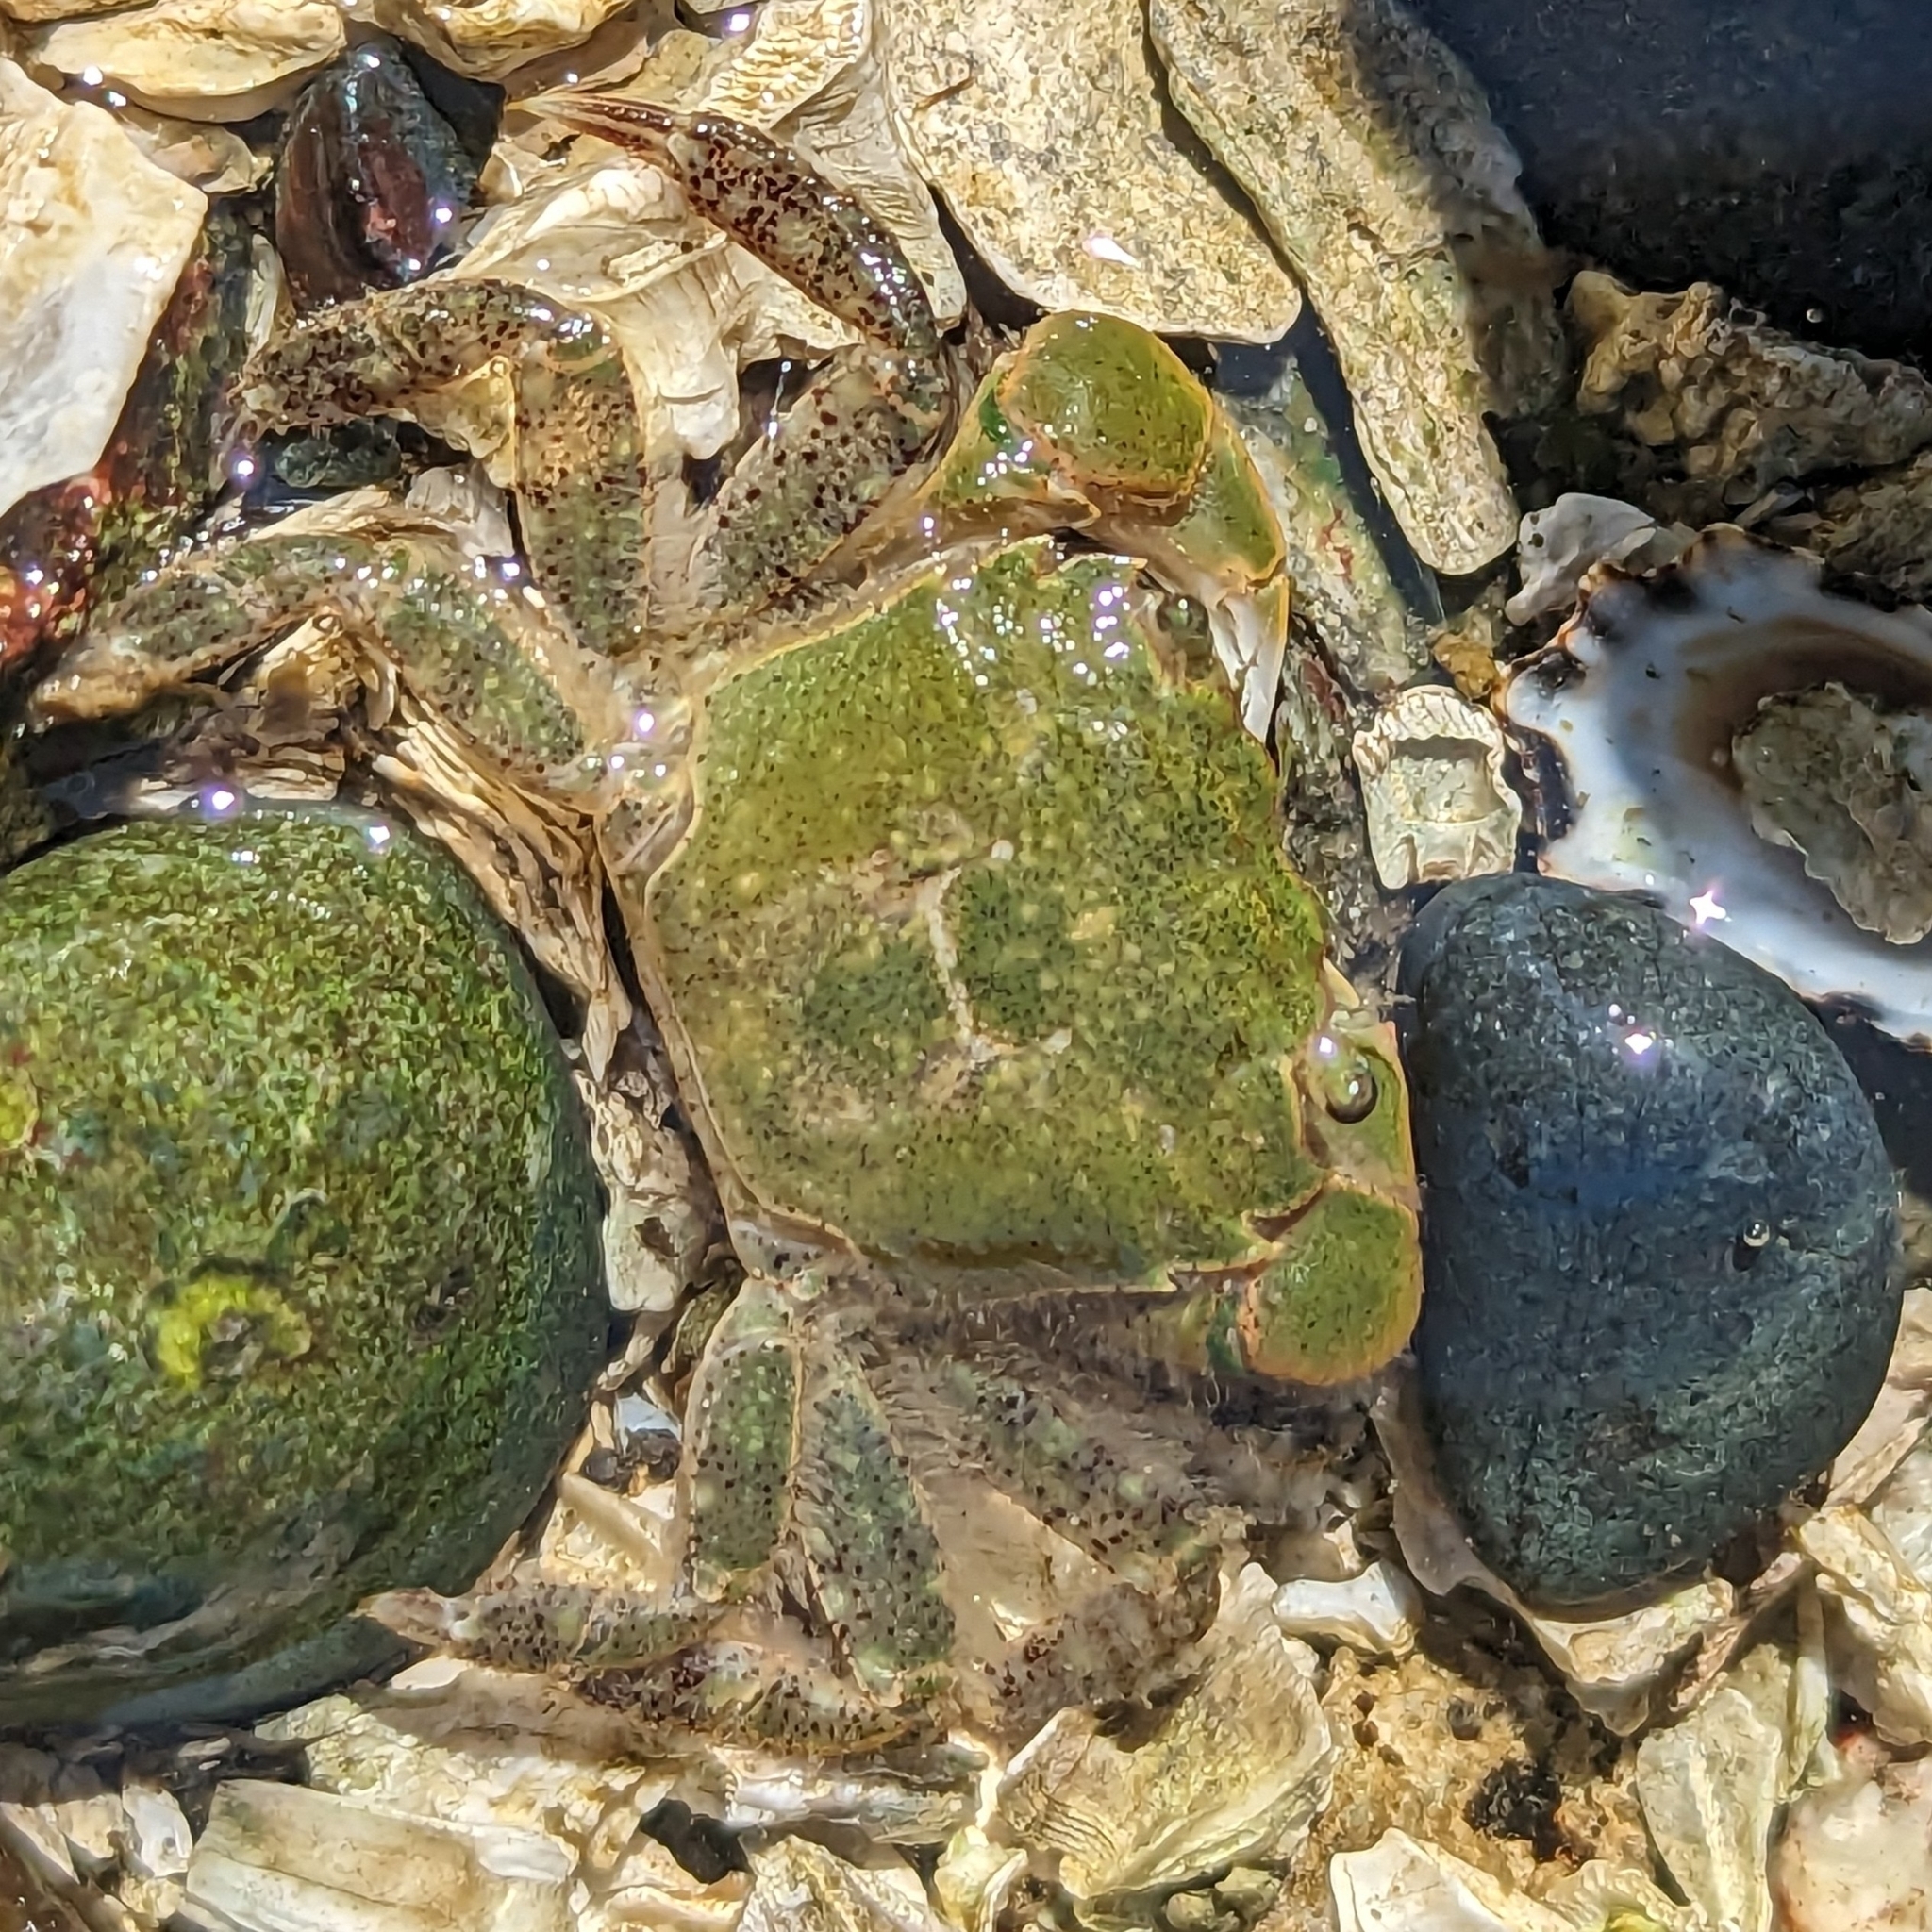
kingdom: Animalia
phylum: Arthropoda
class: Malacostraca
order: Decapoda
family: Varunidae
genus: Hemigrapsus
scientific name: Hemigrapsus oregonensis
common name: Yellow shore crab
